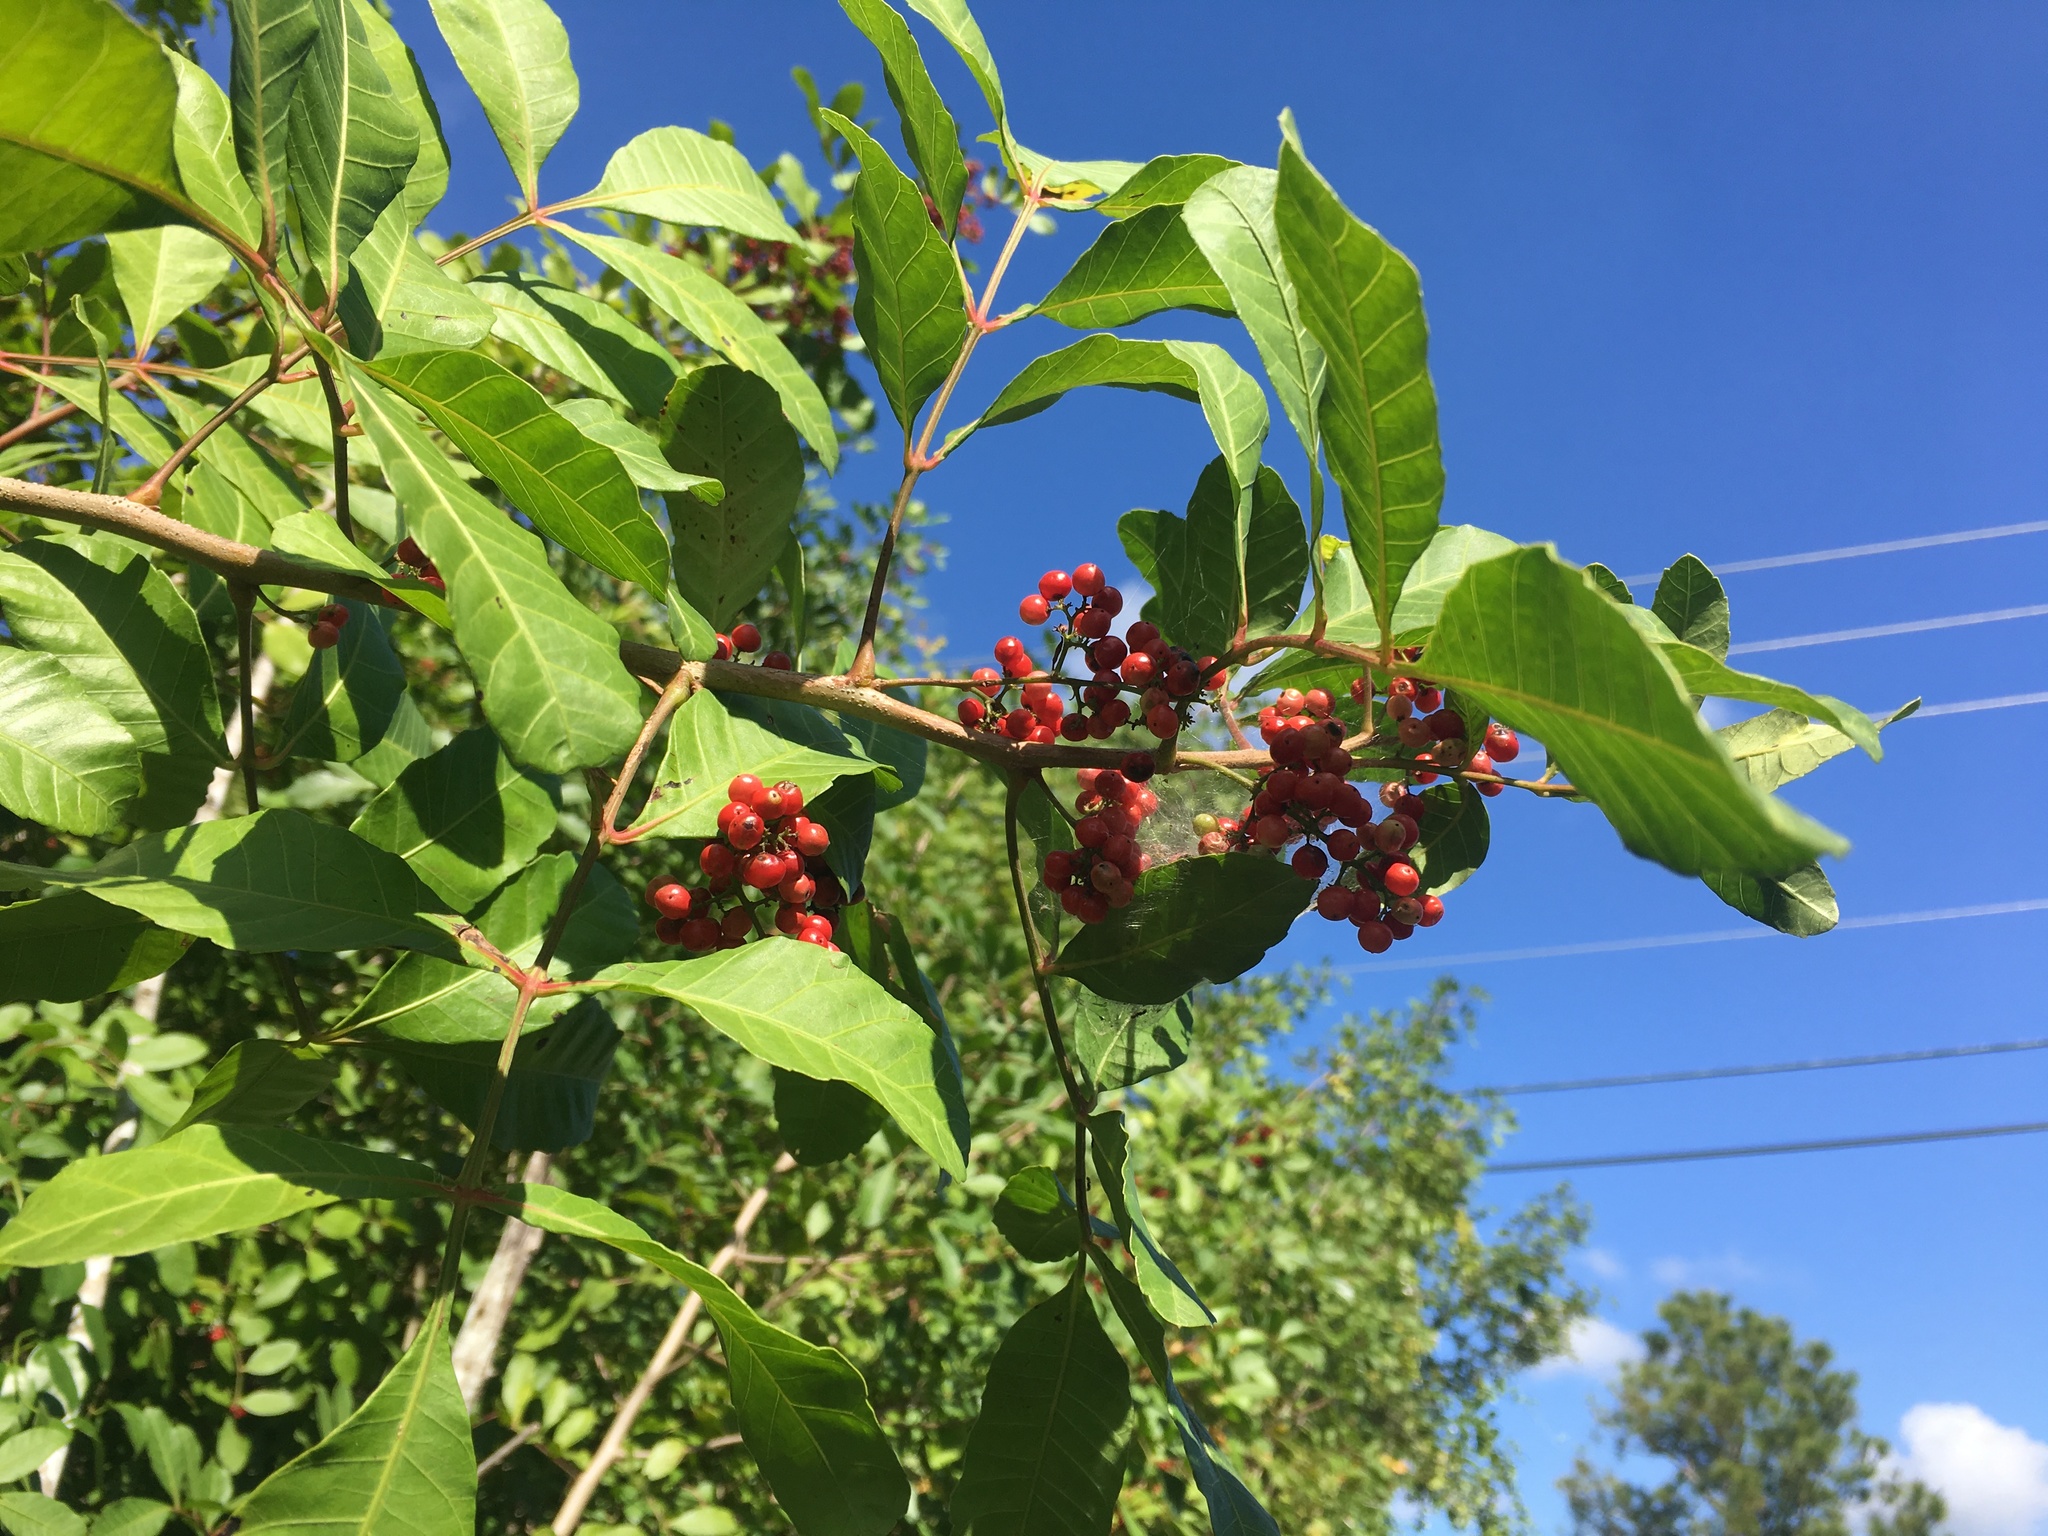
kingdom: Plantae
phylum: Tracheophyta
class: Magnoliopsida
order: Sapindales
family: Anacardiaceae
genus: Schinus
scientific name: Schinus terebinthifolia
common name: Brazilian peppertree
